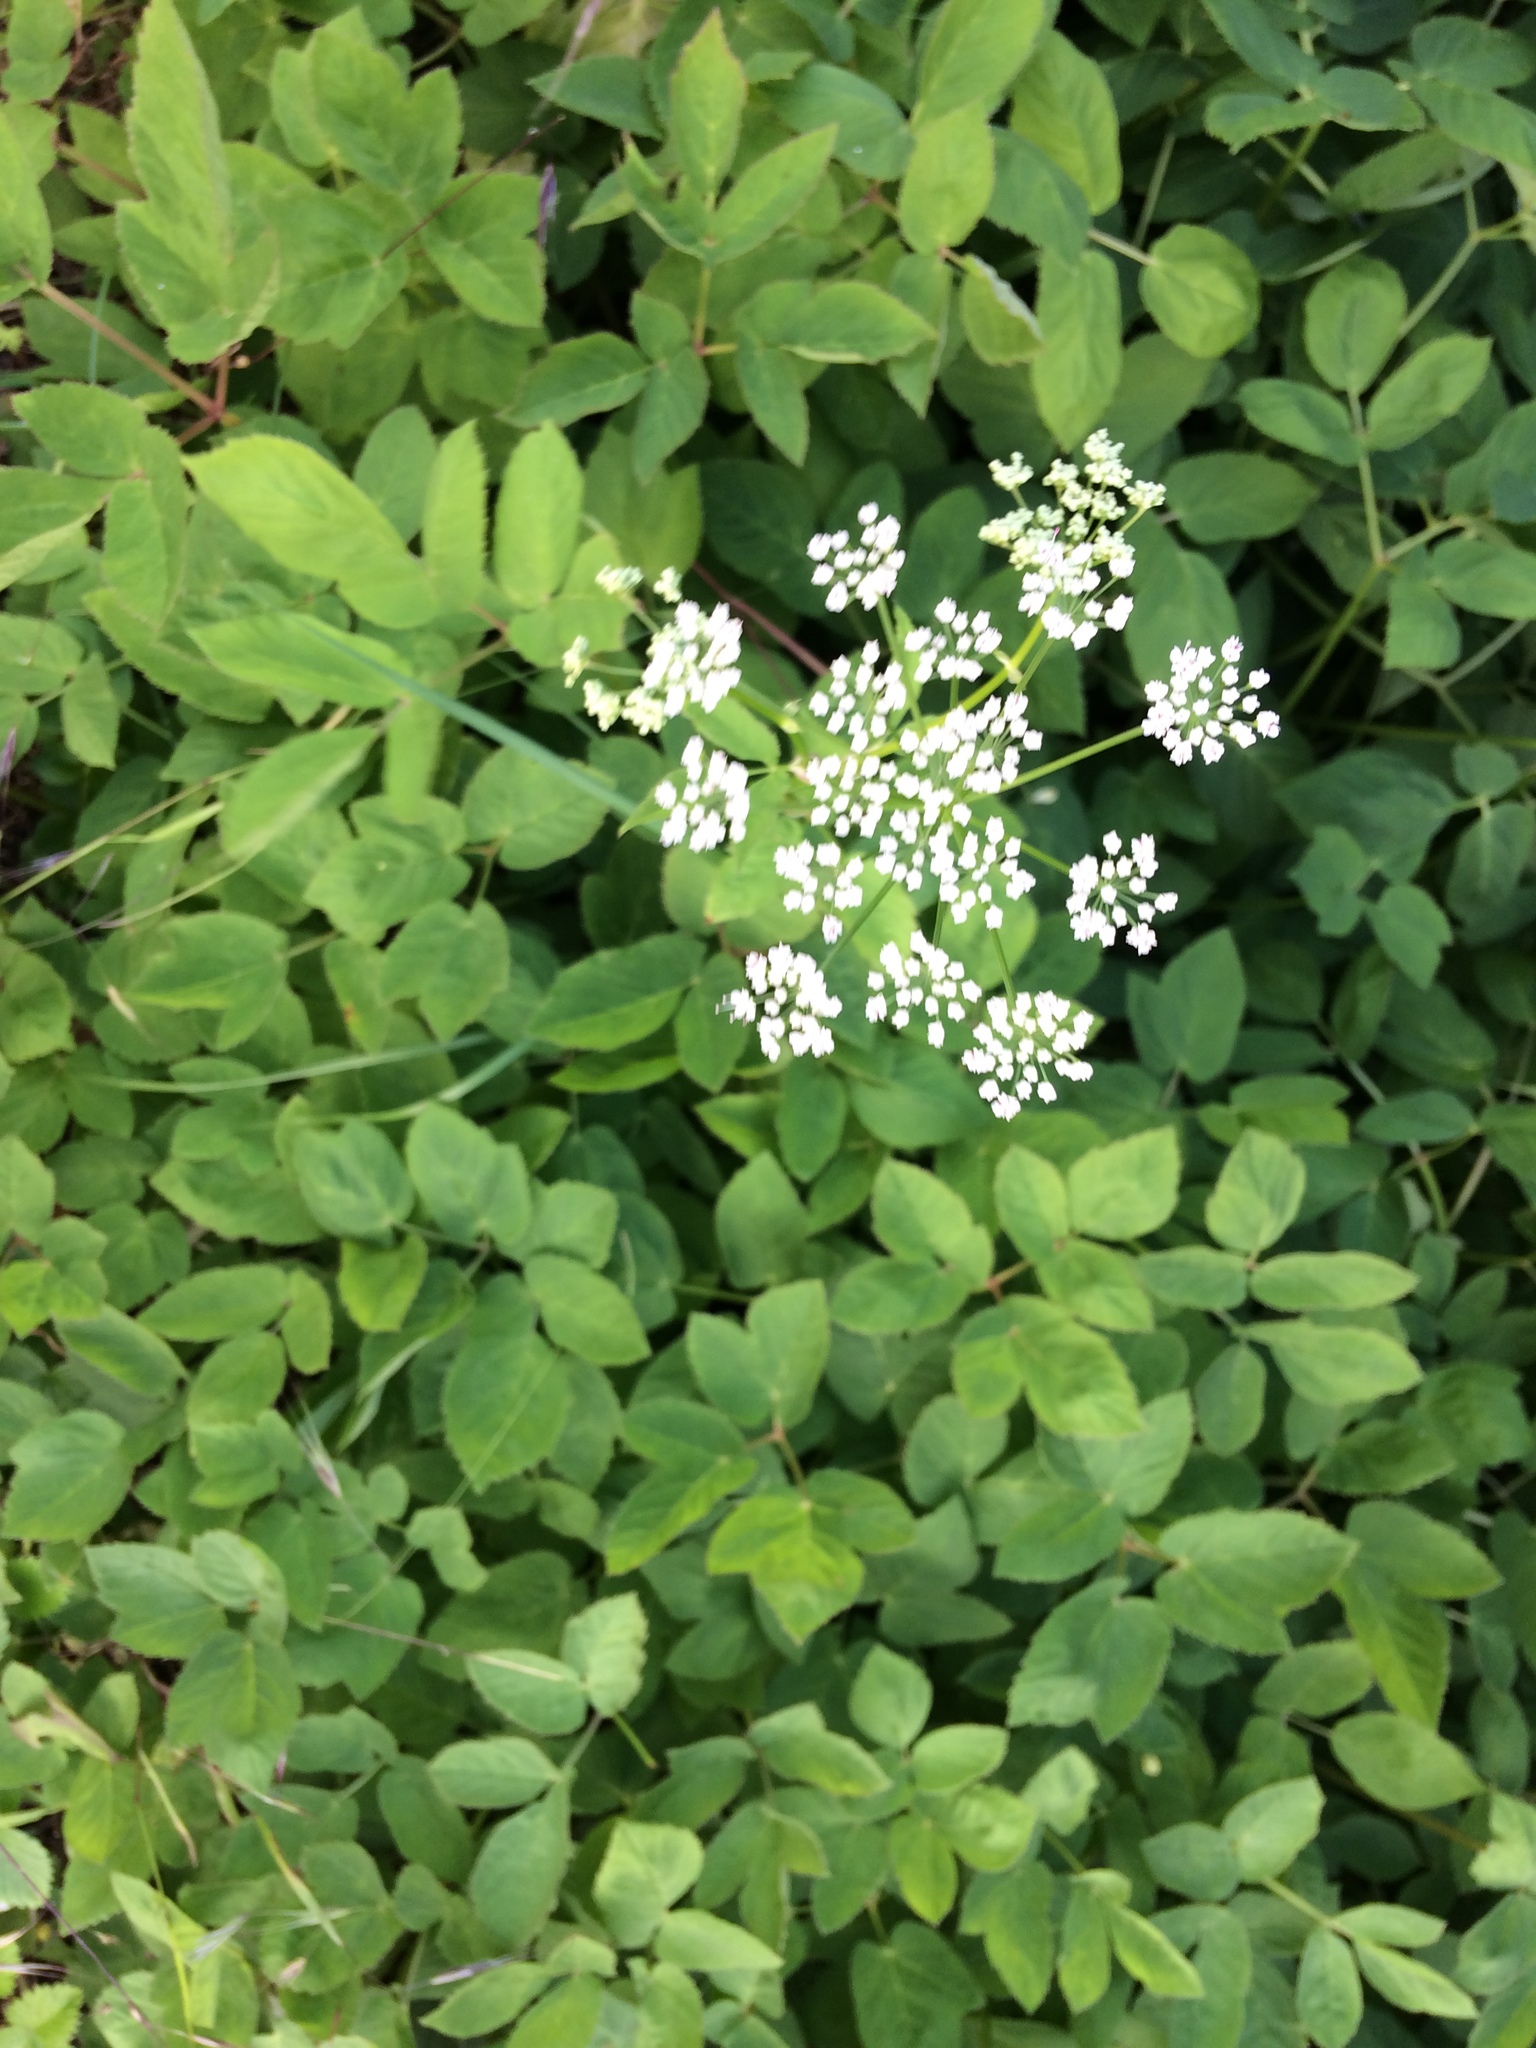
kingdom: Plantae
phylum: Tracheophyta
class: Magnoliopsida
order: Apiales
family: Apiaceae
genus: Aegopodium
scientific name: Aegopodium podagraria
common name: Ground-elder
